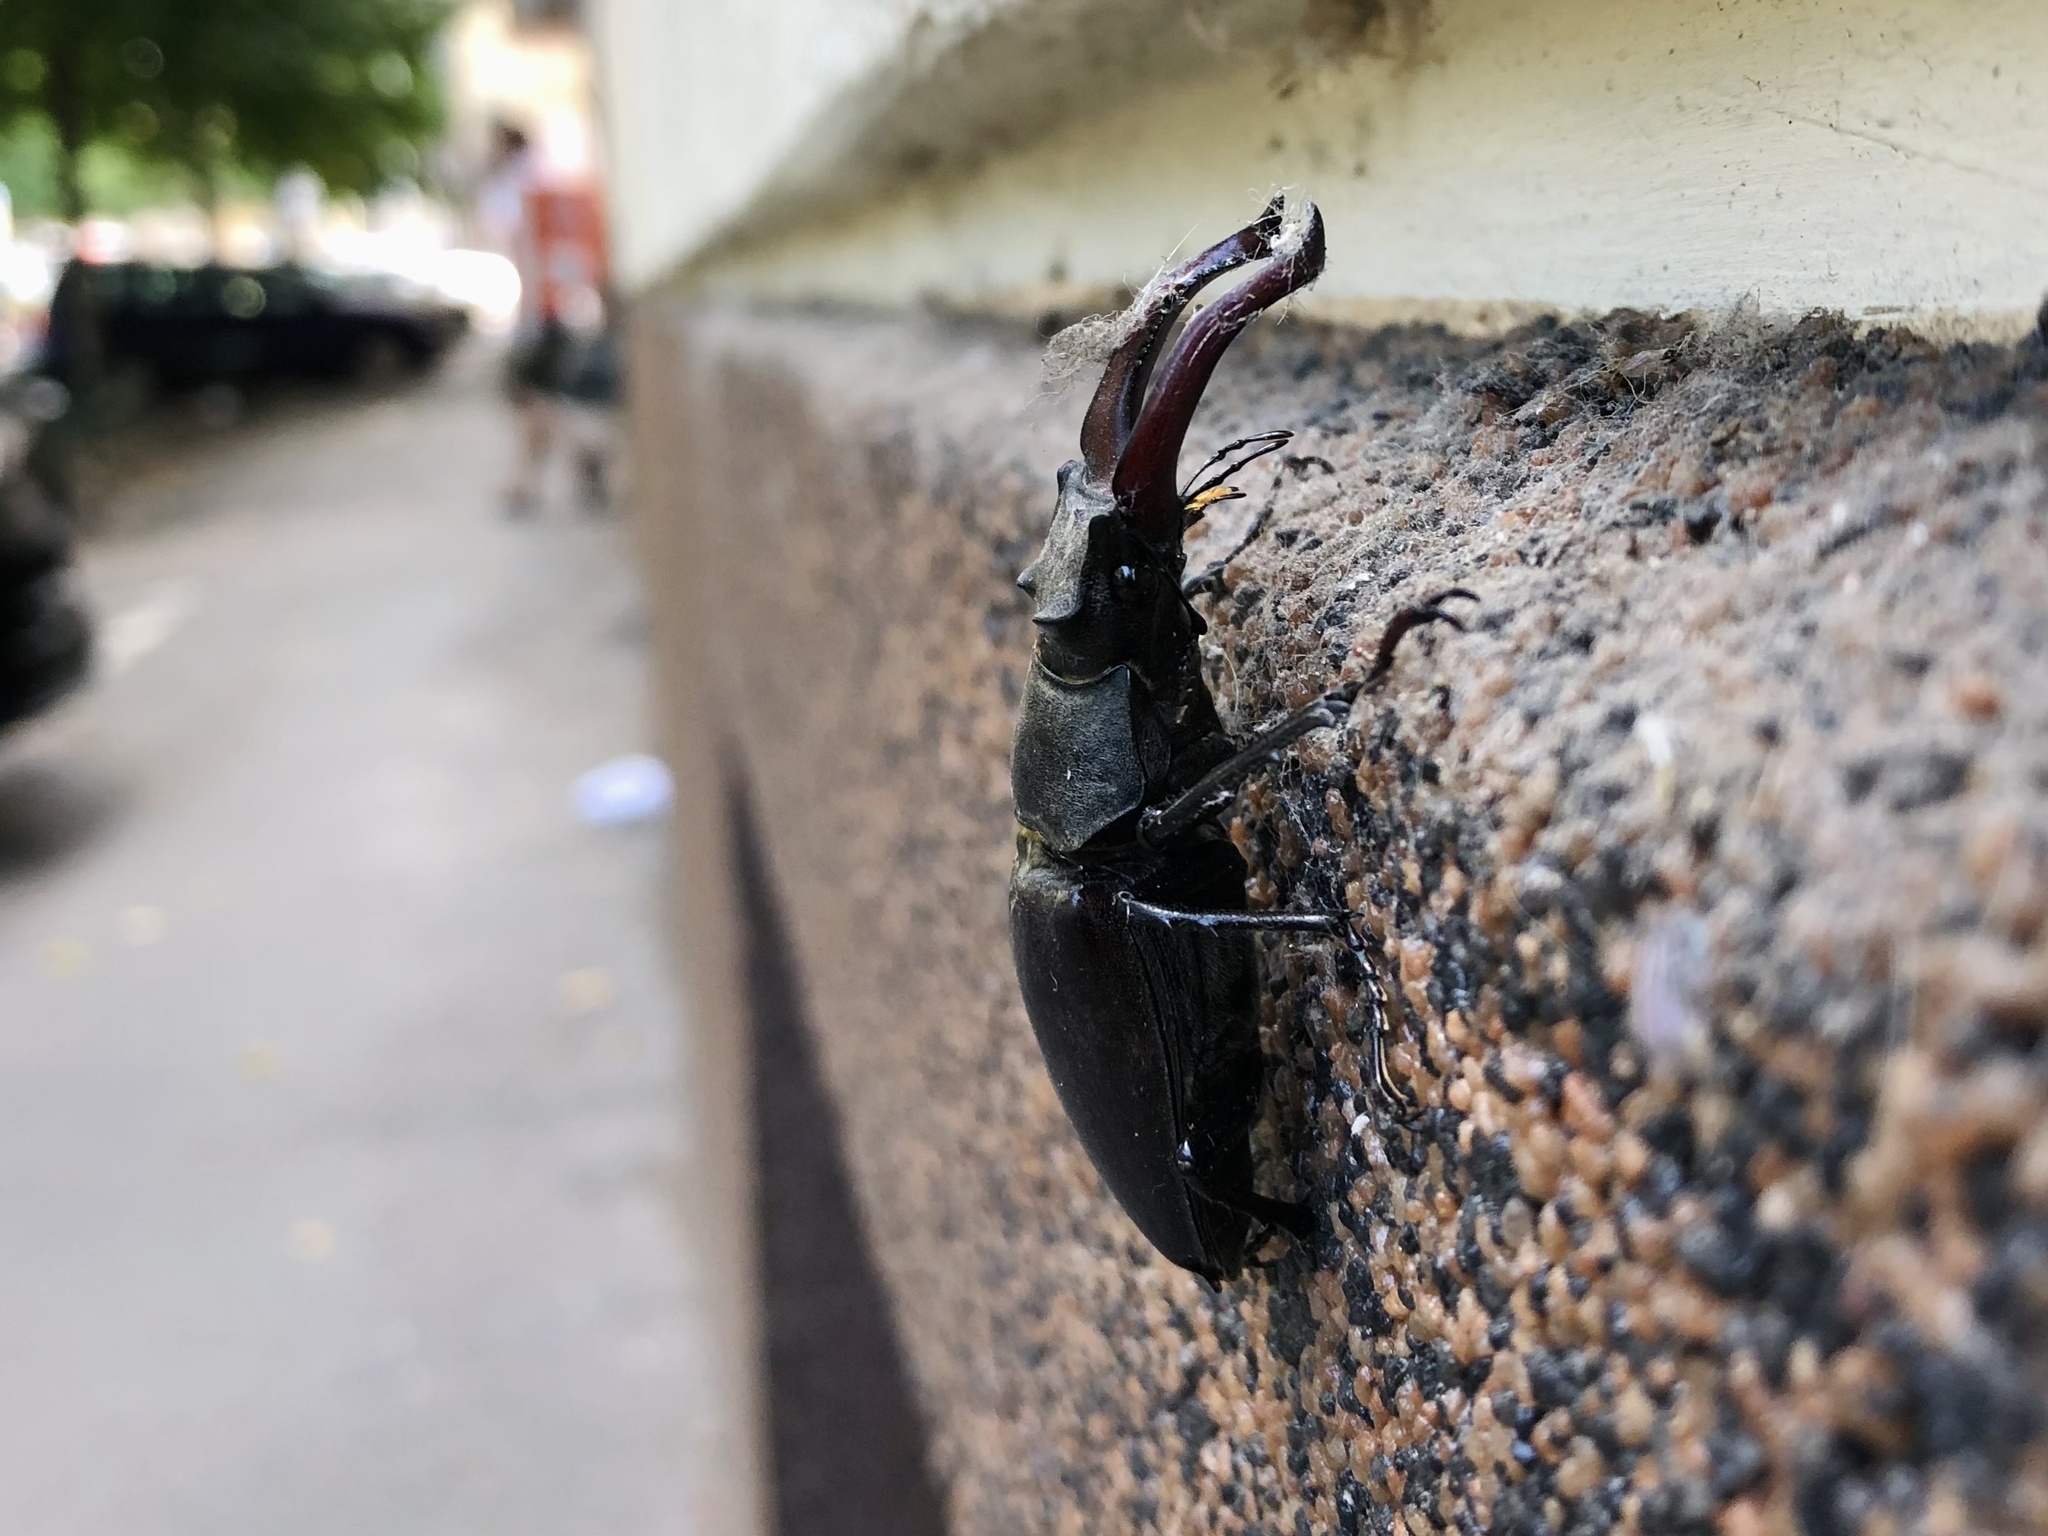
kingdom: Animalia
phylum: Arthropoda
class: Insecta
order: Coleoptera
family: Lucanidae
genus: Lucanus
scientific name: Lucanus cervus
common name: Stag beetle
